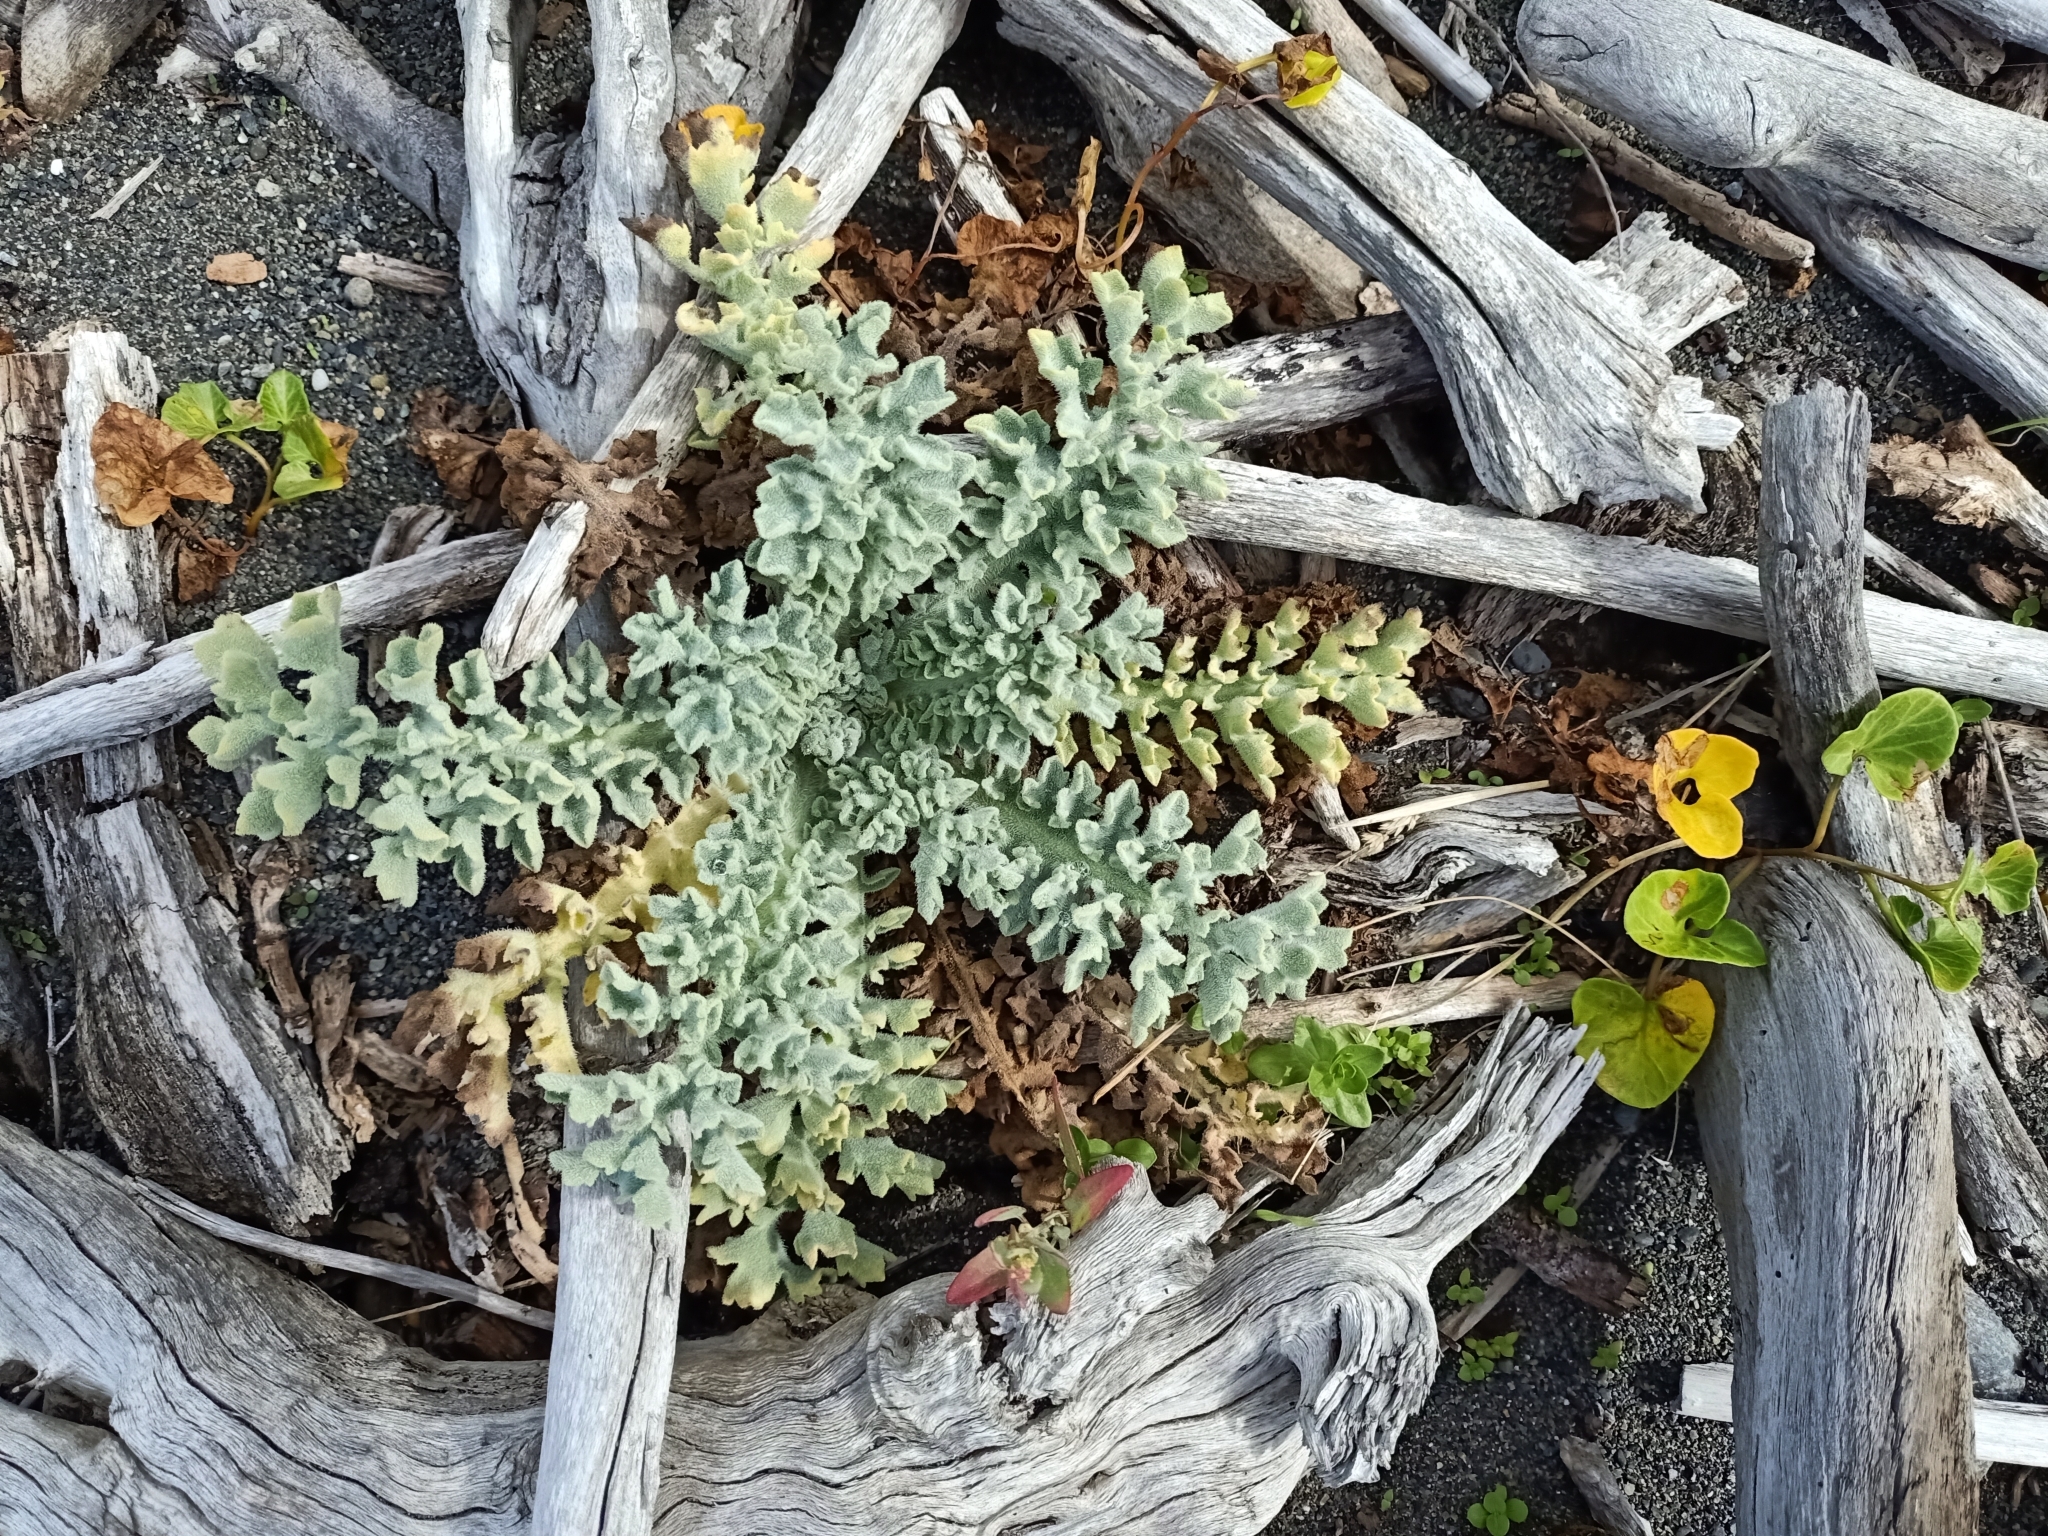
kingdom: Plantae
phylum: Tracheophyta
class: Magnoliopsida
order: Ranunculales
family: Papaveraceae
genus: Glaucium
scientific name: Glaucium flavum
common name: Yellow horned-poppy
